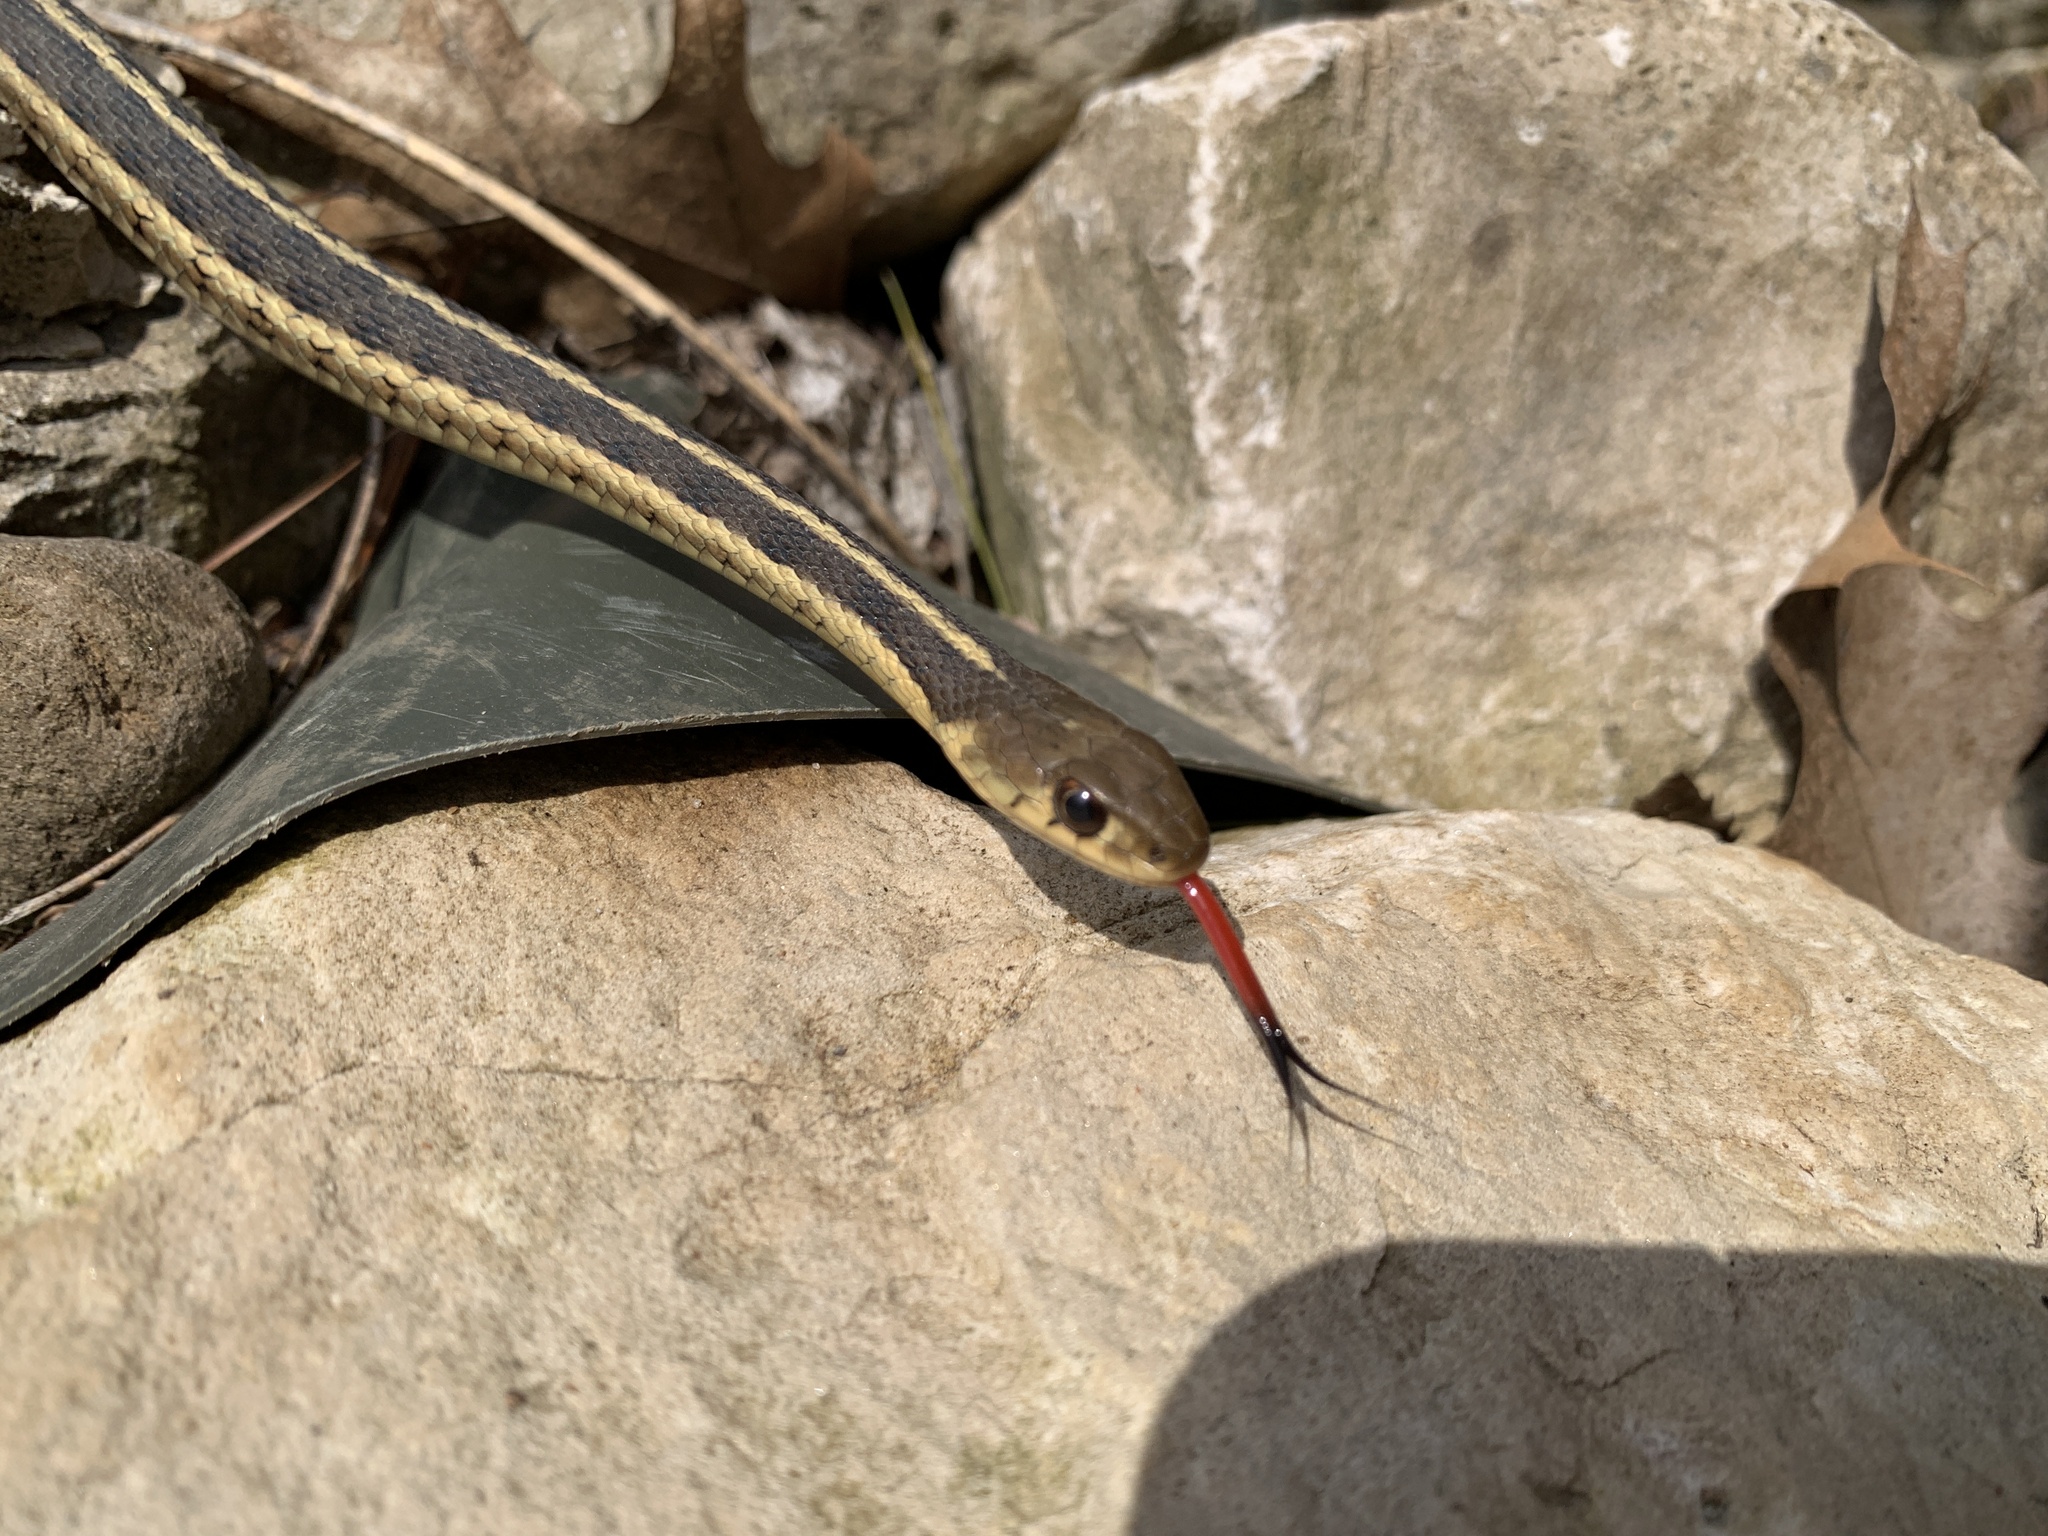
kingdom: Animalia
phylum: Chordata
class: Squamata
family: Colubridae
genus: Thamnophis
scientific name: Thamnophis sirtalis
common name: Common garter snake
